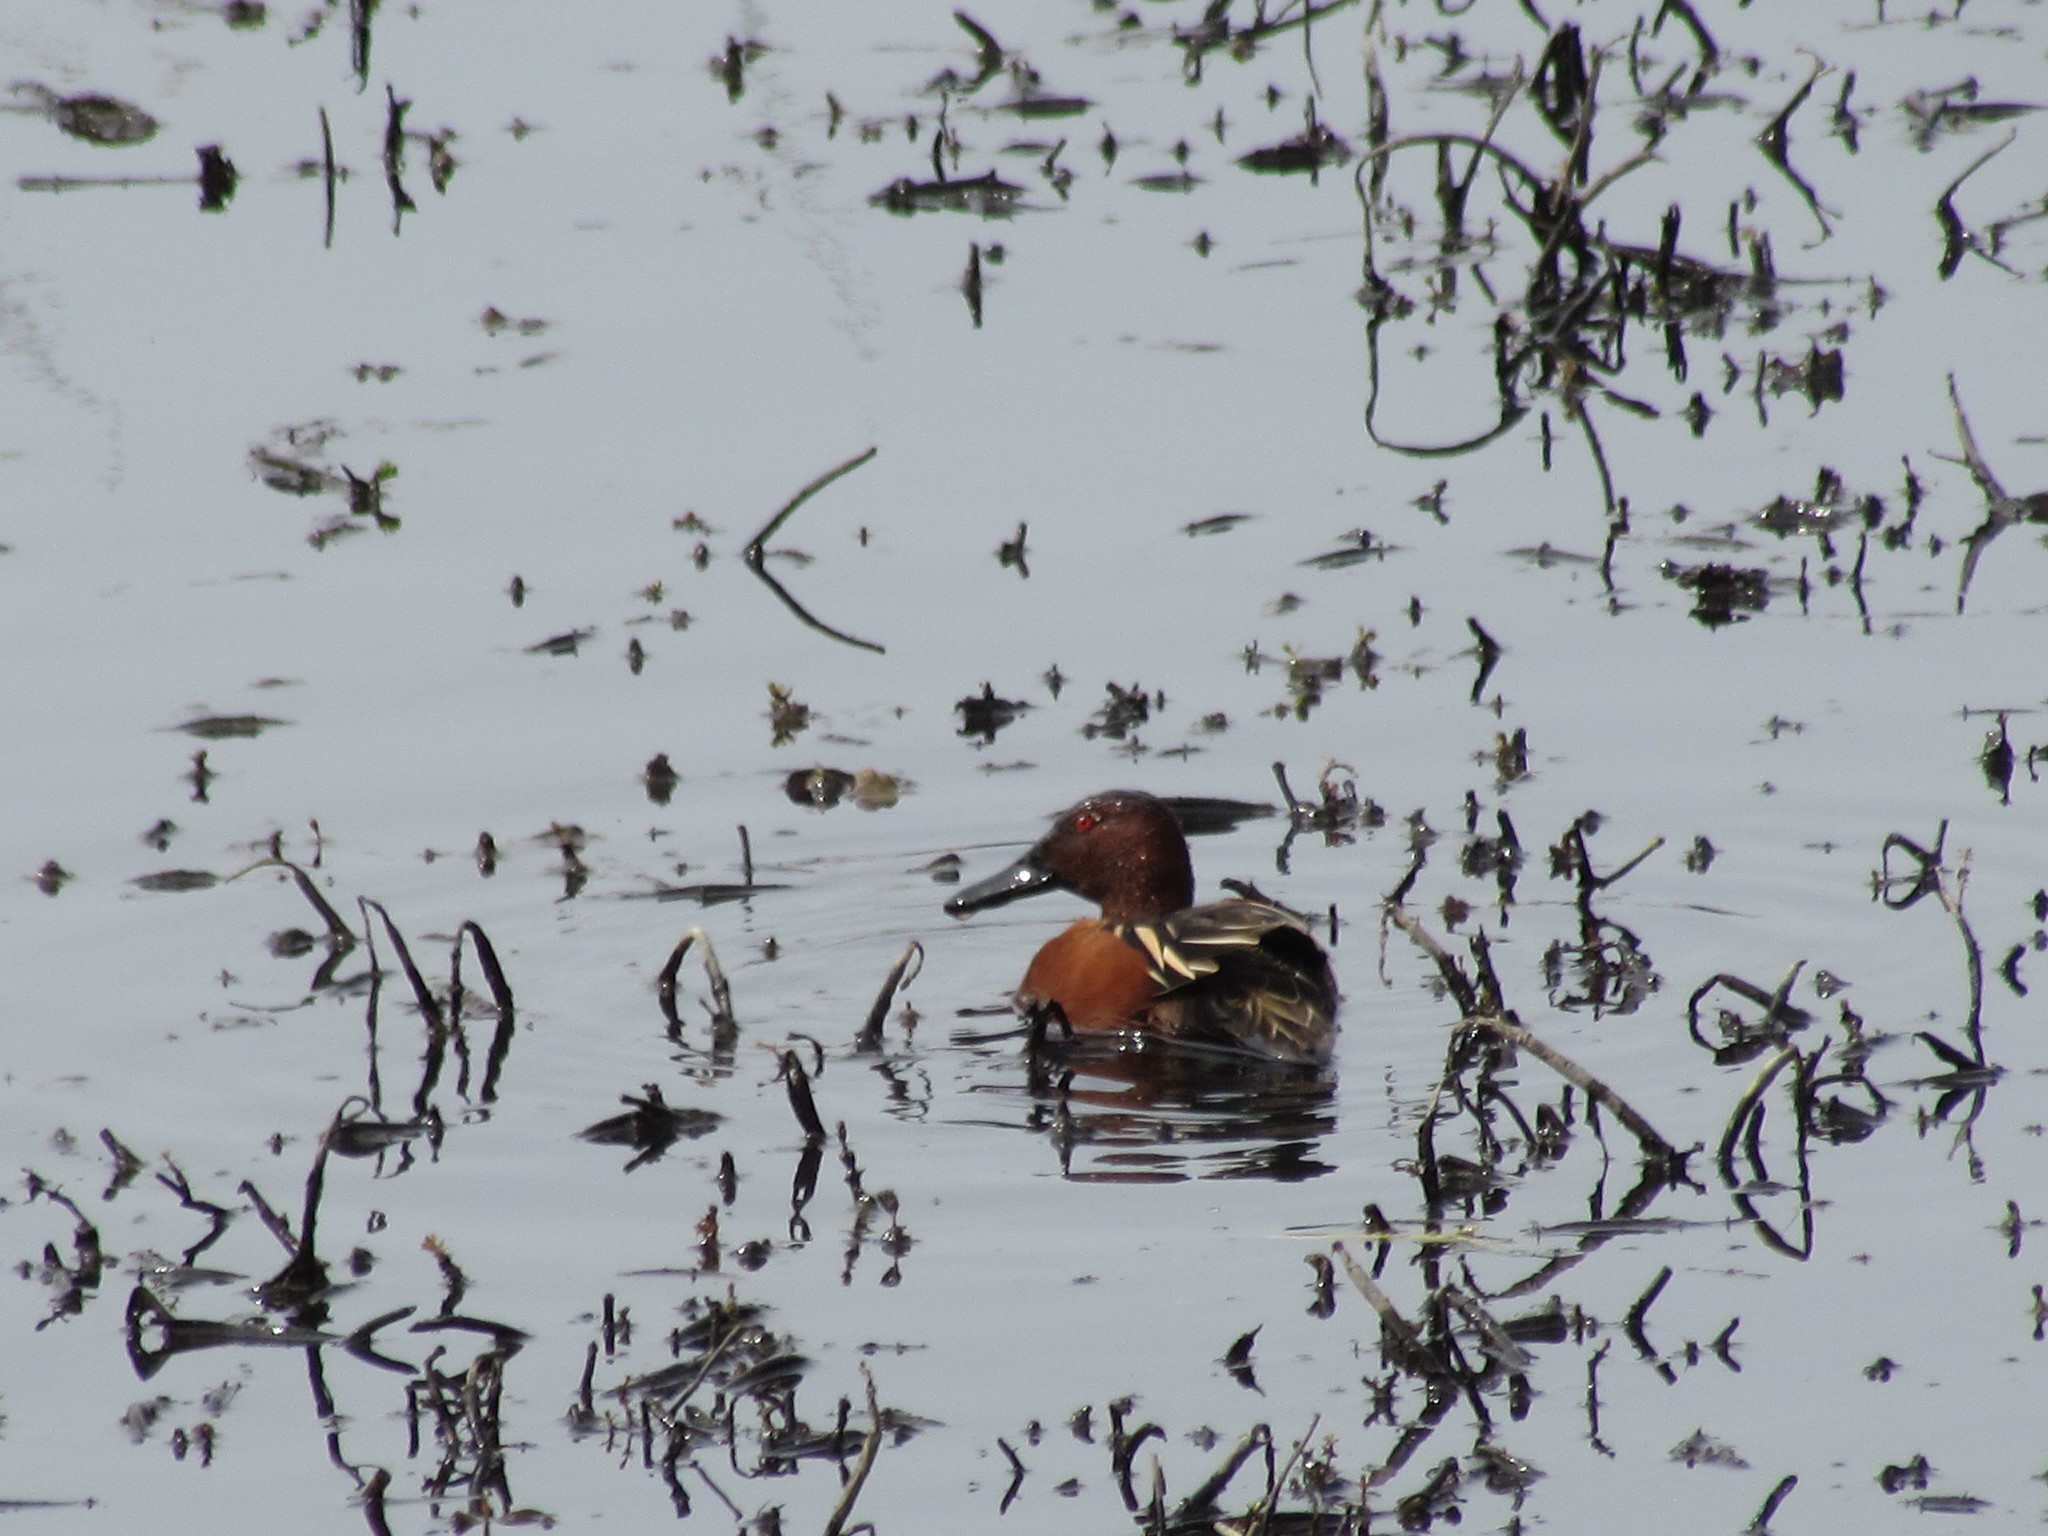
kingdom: Animalia
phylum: Chordata
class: Aves
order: Anseriformes
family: Anatidae
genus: Spatula
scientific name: Spatula cyanoptera
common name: Cinnamon teal
